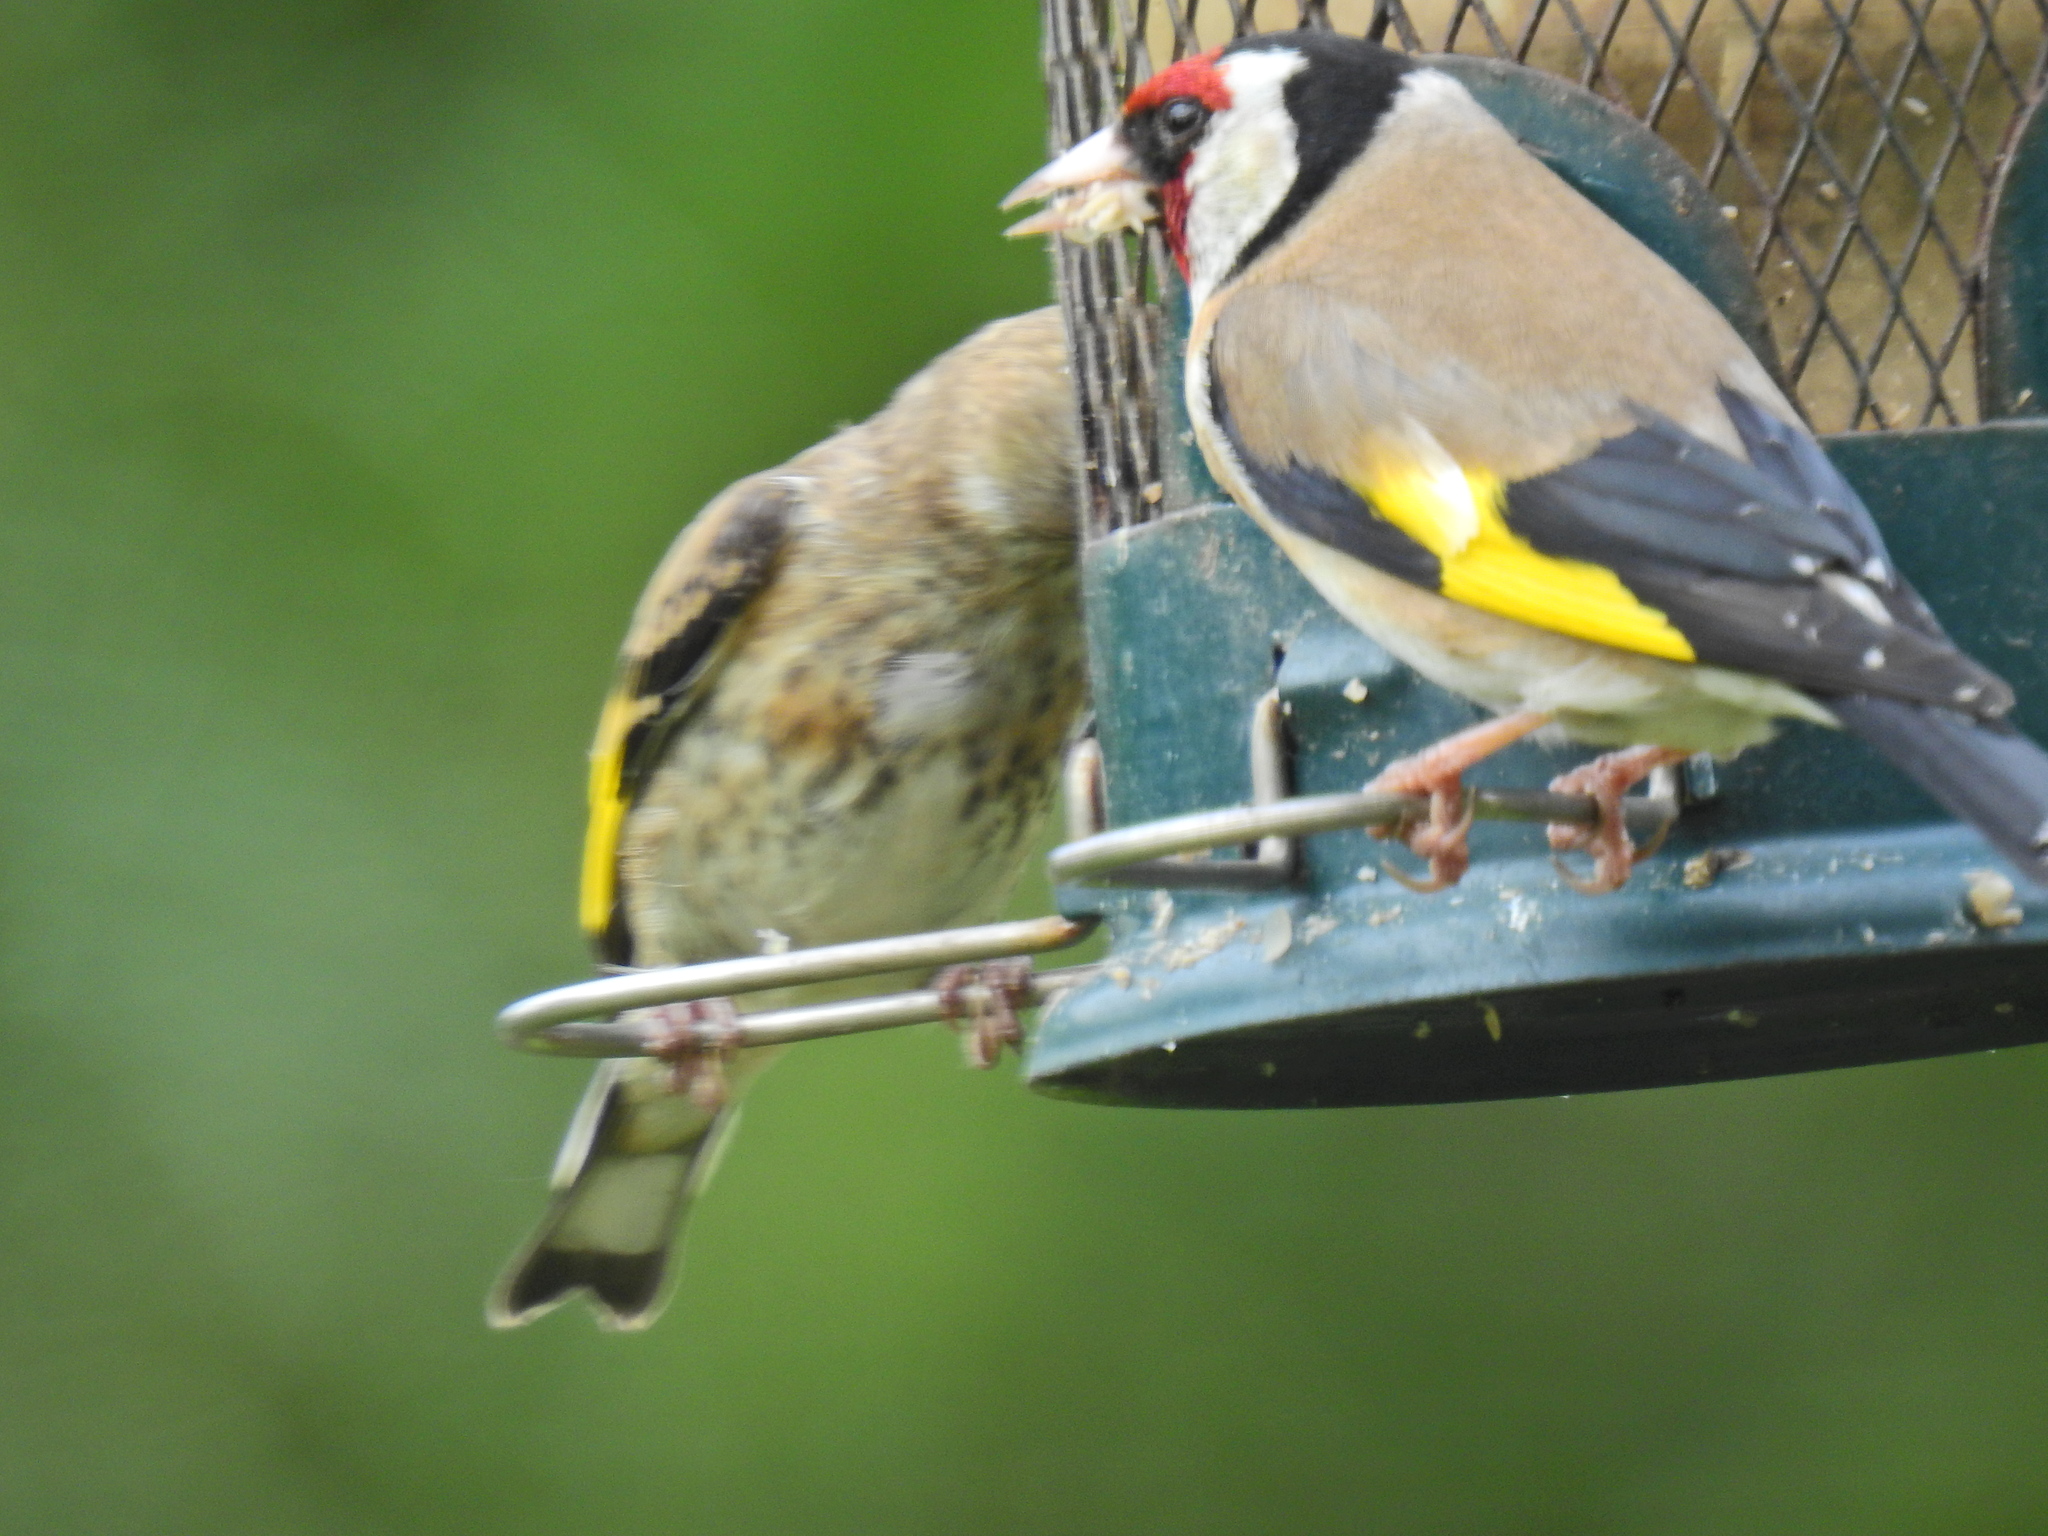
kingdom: Animalia
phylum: Chordata
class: Aves
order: Passeriformes
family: Fringillidae
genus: Carduelis
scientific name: Carduelis carduelis
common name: European goldfinch
